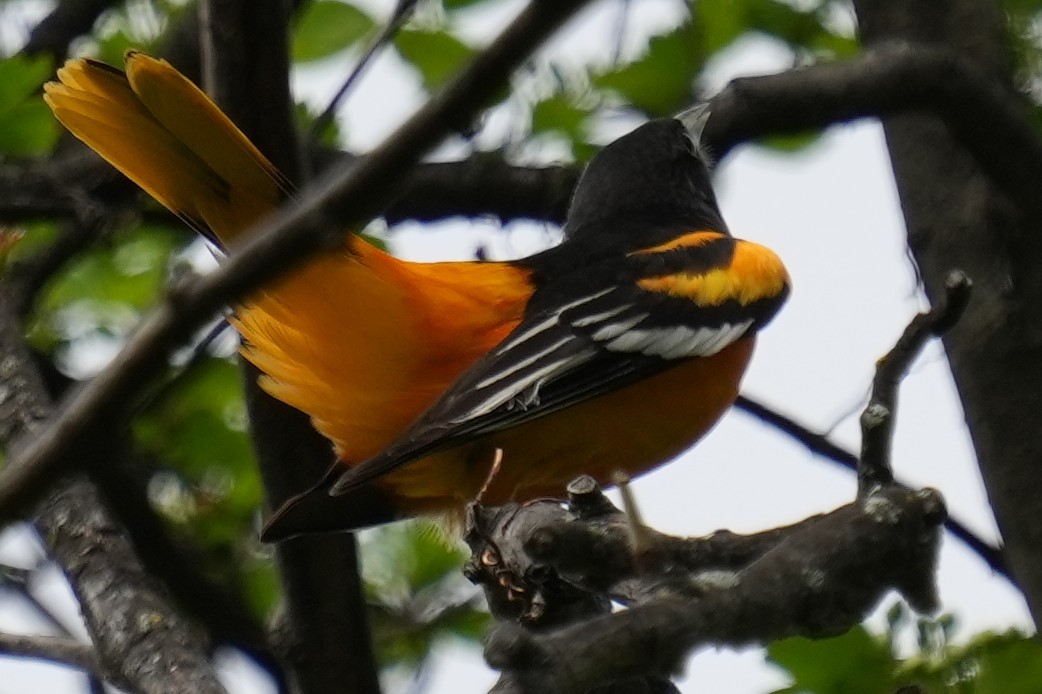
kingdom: Animalia
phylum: Chordata
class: Aves
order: Passeriformes
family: Icteridae
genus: Icterus
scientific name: Icterus galbula
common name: Baltimore oriole
